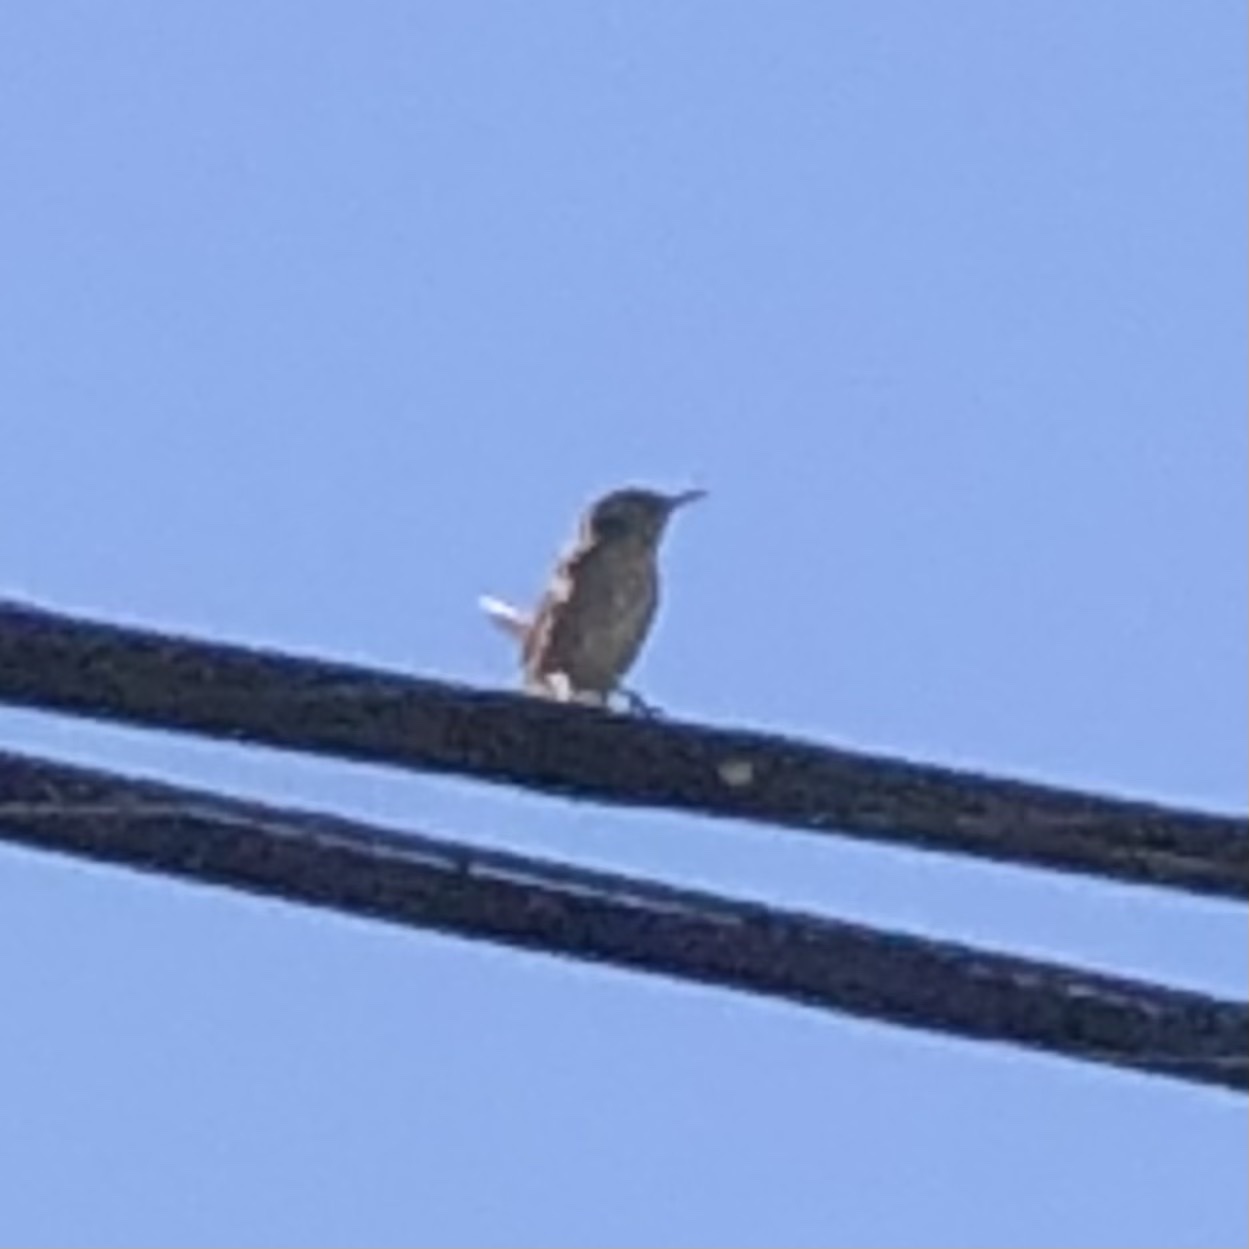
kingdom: Animalia
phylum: Chordata
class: Aves
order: Passeriformes
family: Troglodytidae
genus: Thryomanes
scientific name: Thryomanes bewickii
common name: Bewick's wren
